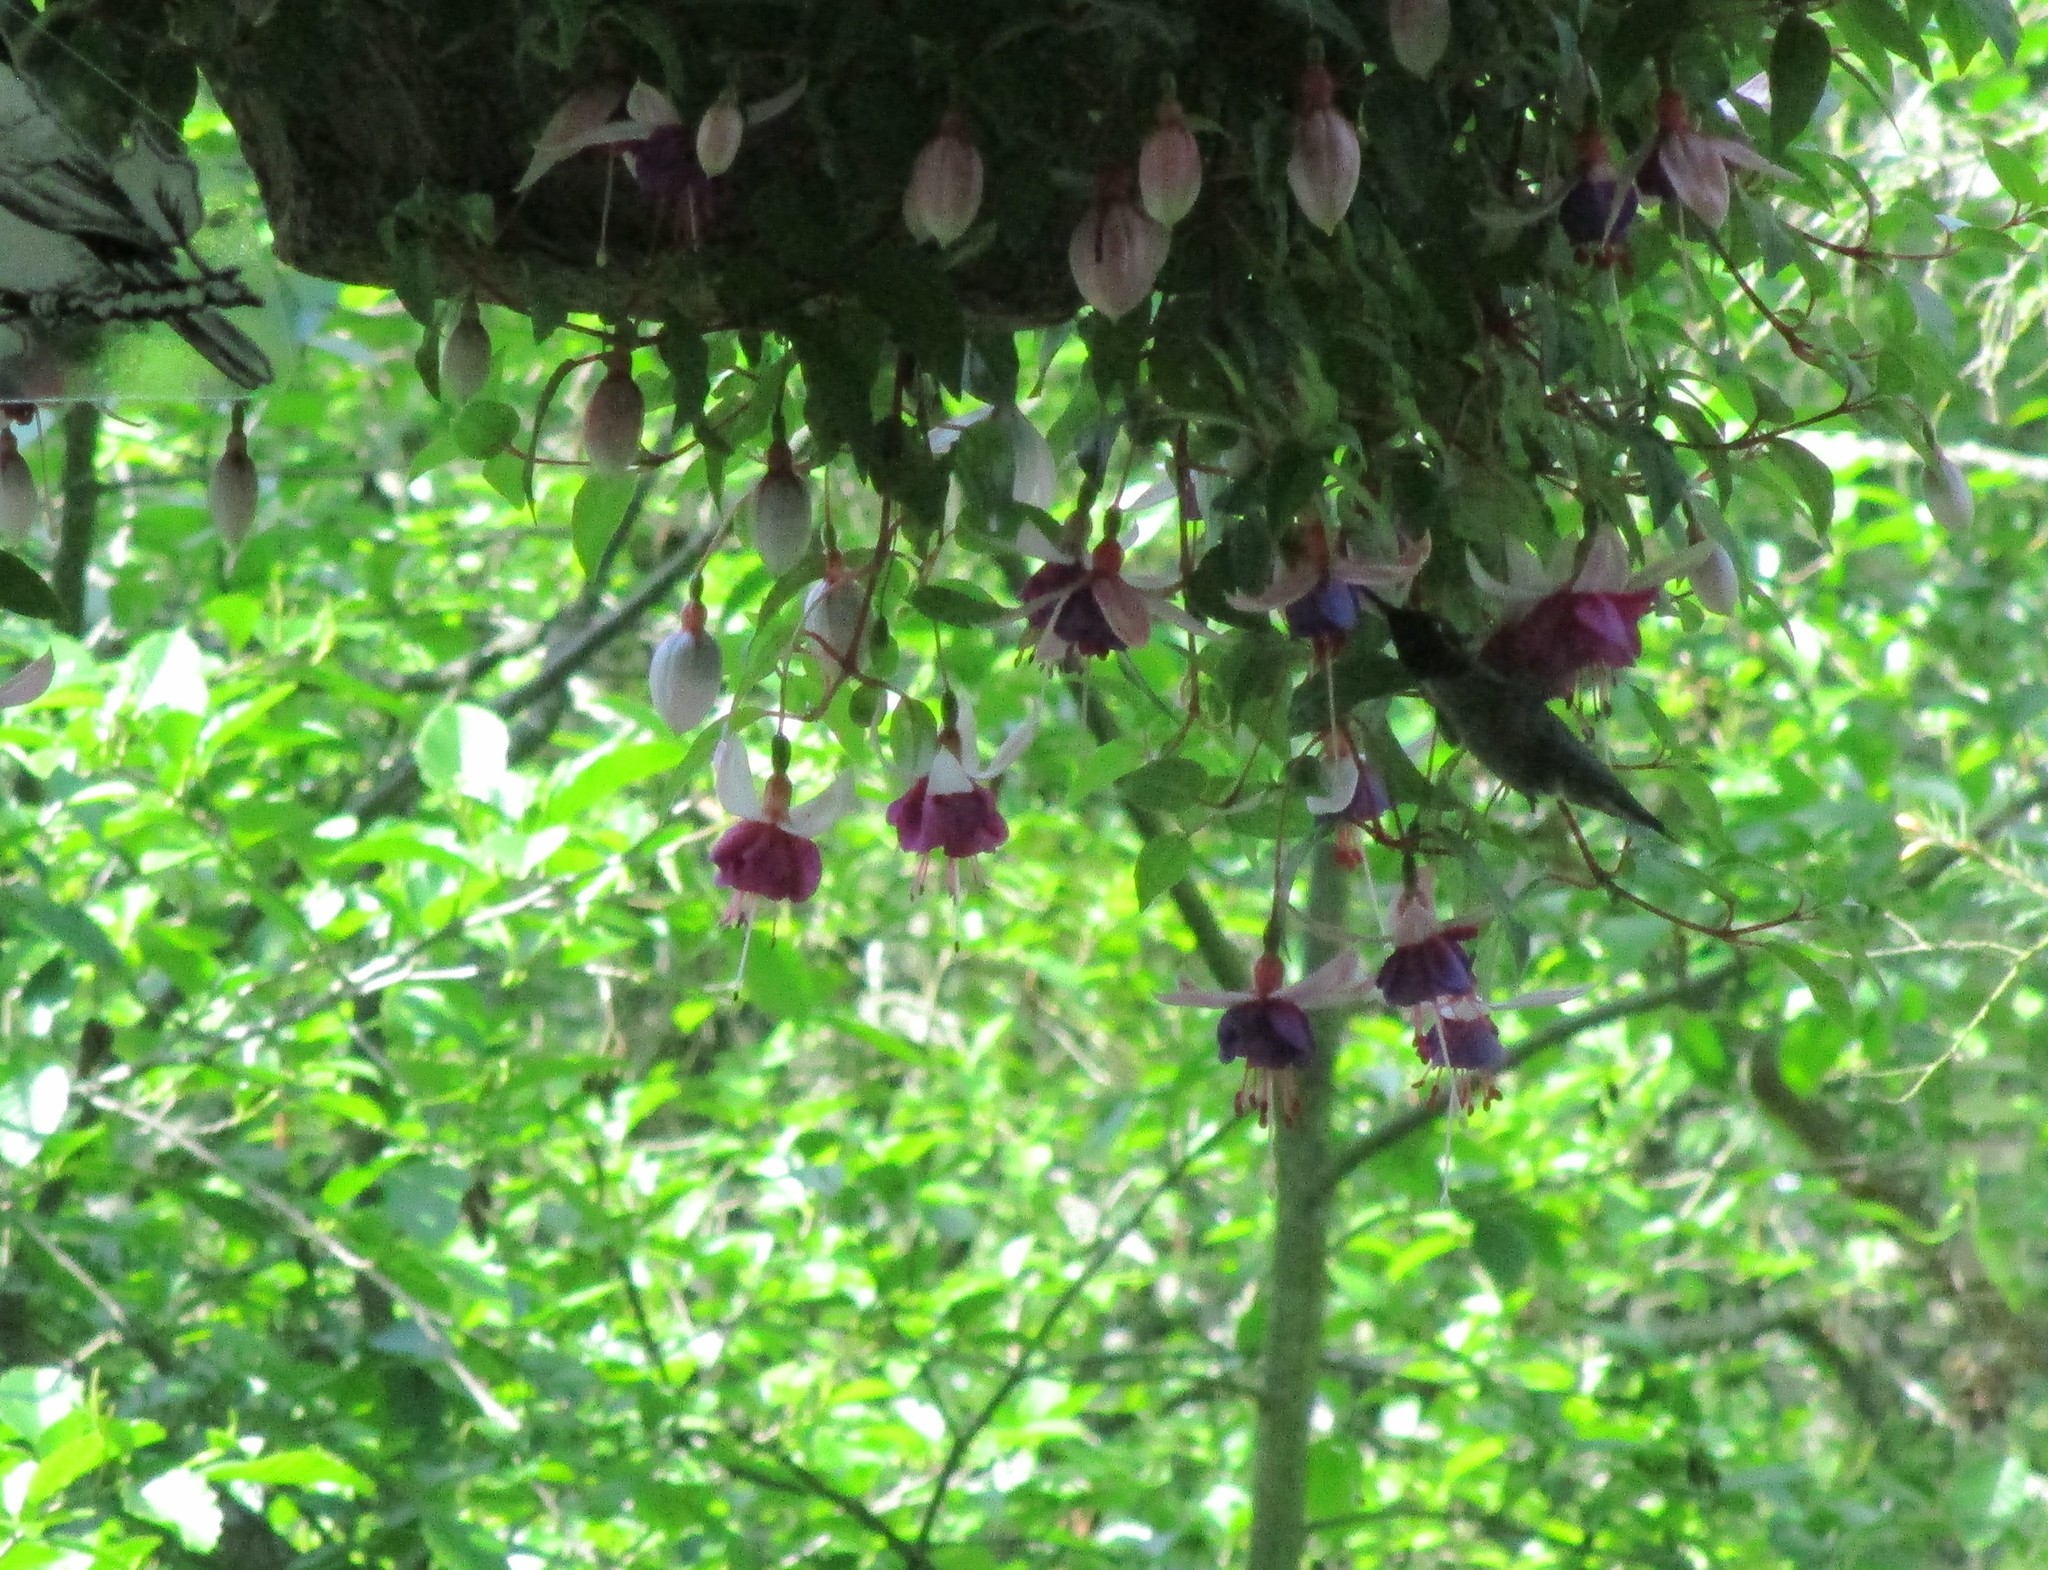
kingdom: Animalia
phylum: Chordata
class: Aves
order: Apodiformes
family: Trochilidae
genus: Calypte
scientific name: Calypte anna
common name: Anna's hummingbird
